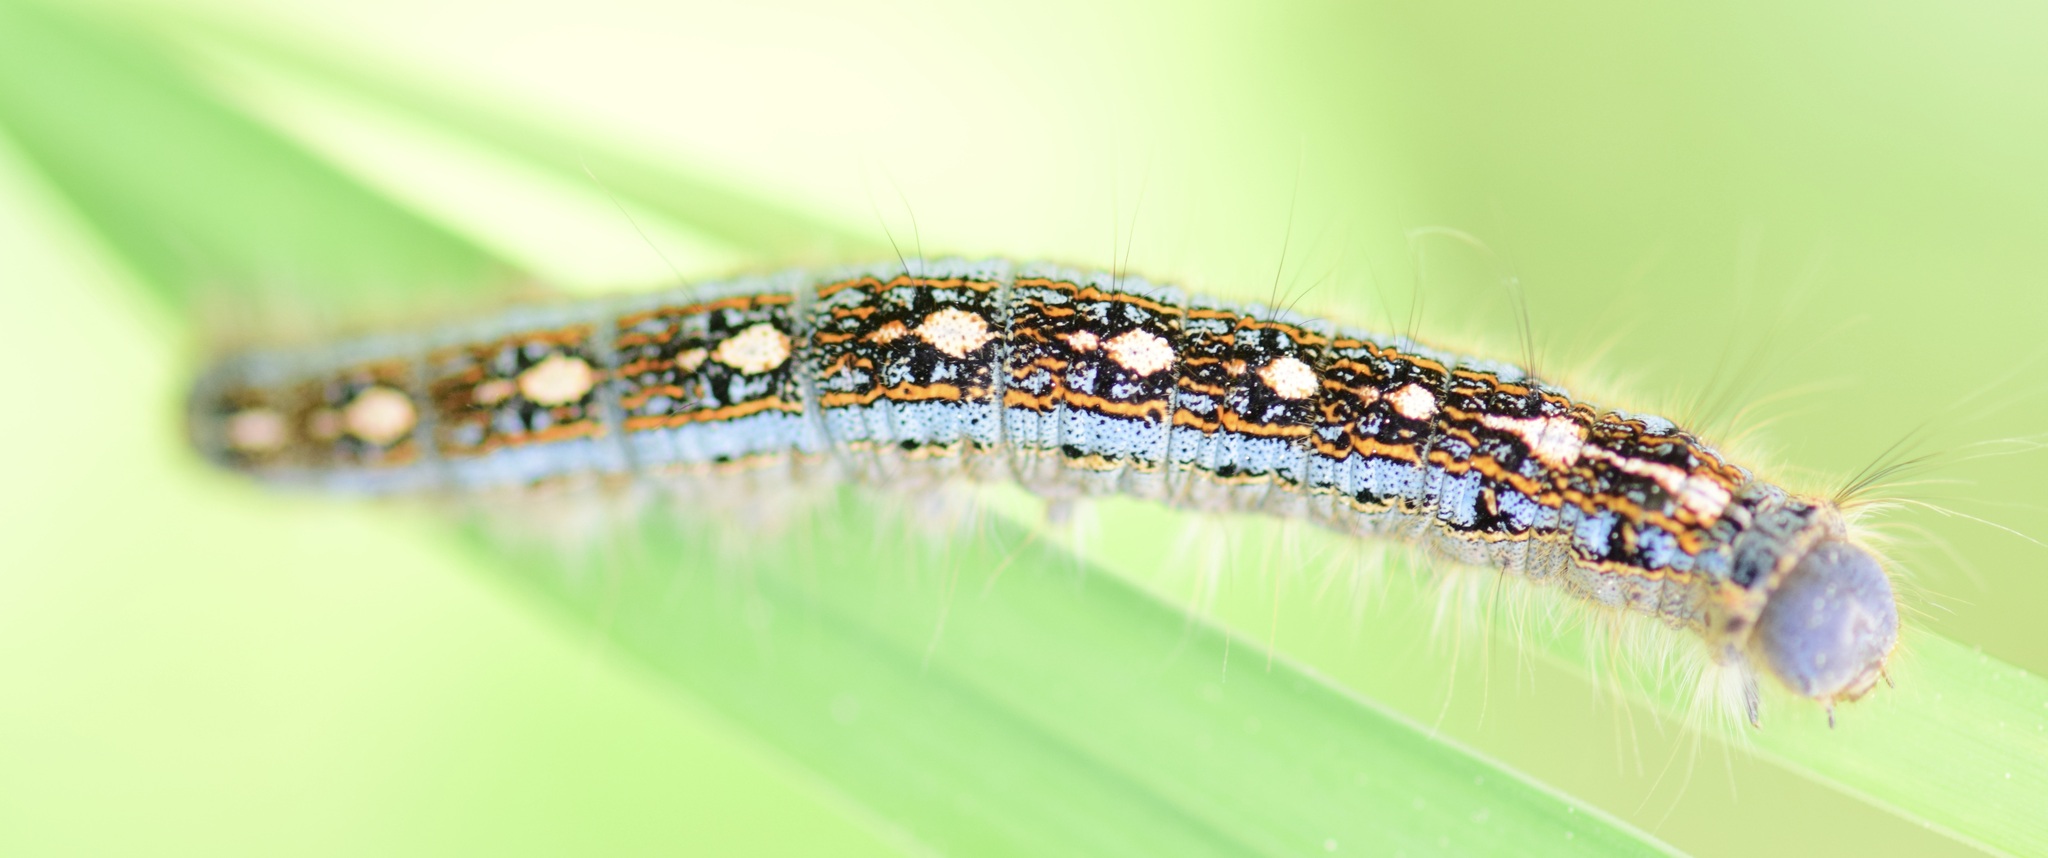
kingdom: Animalia
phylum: Arthropoda
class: Insecta
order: Lepidoptera
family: Lasiocampidae
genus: Malacosoma
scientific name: Malacosoma disstria
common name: Forest tent caterpillar
